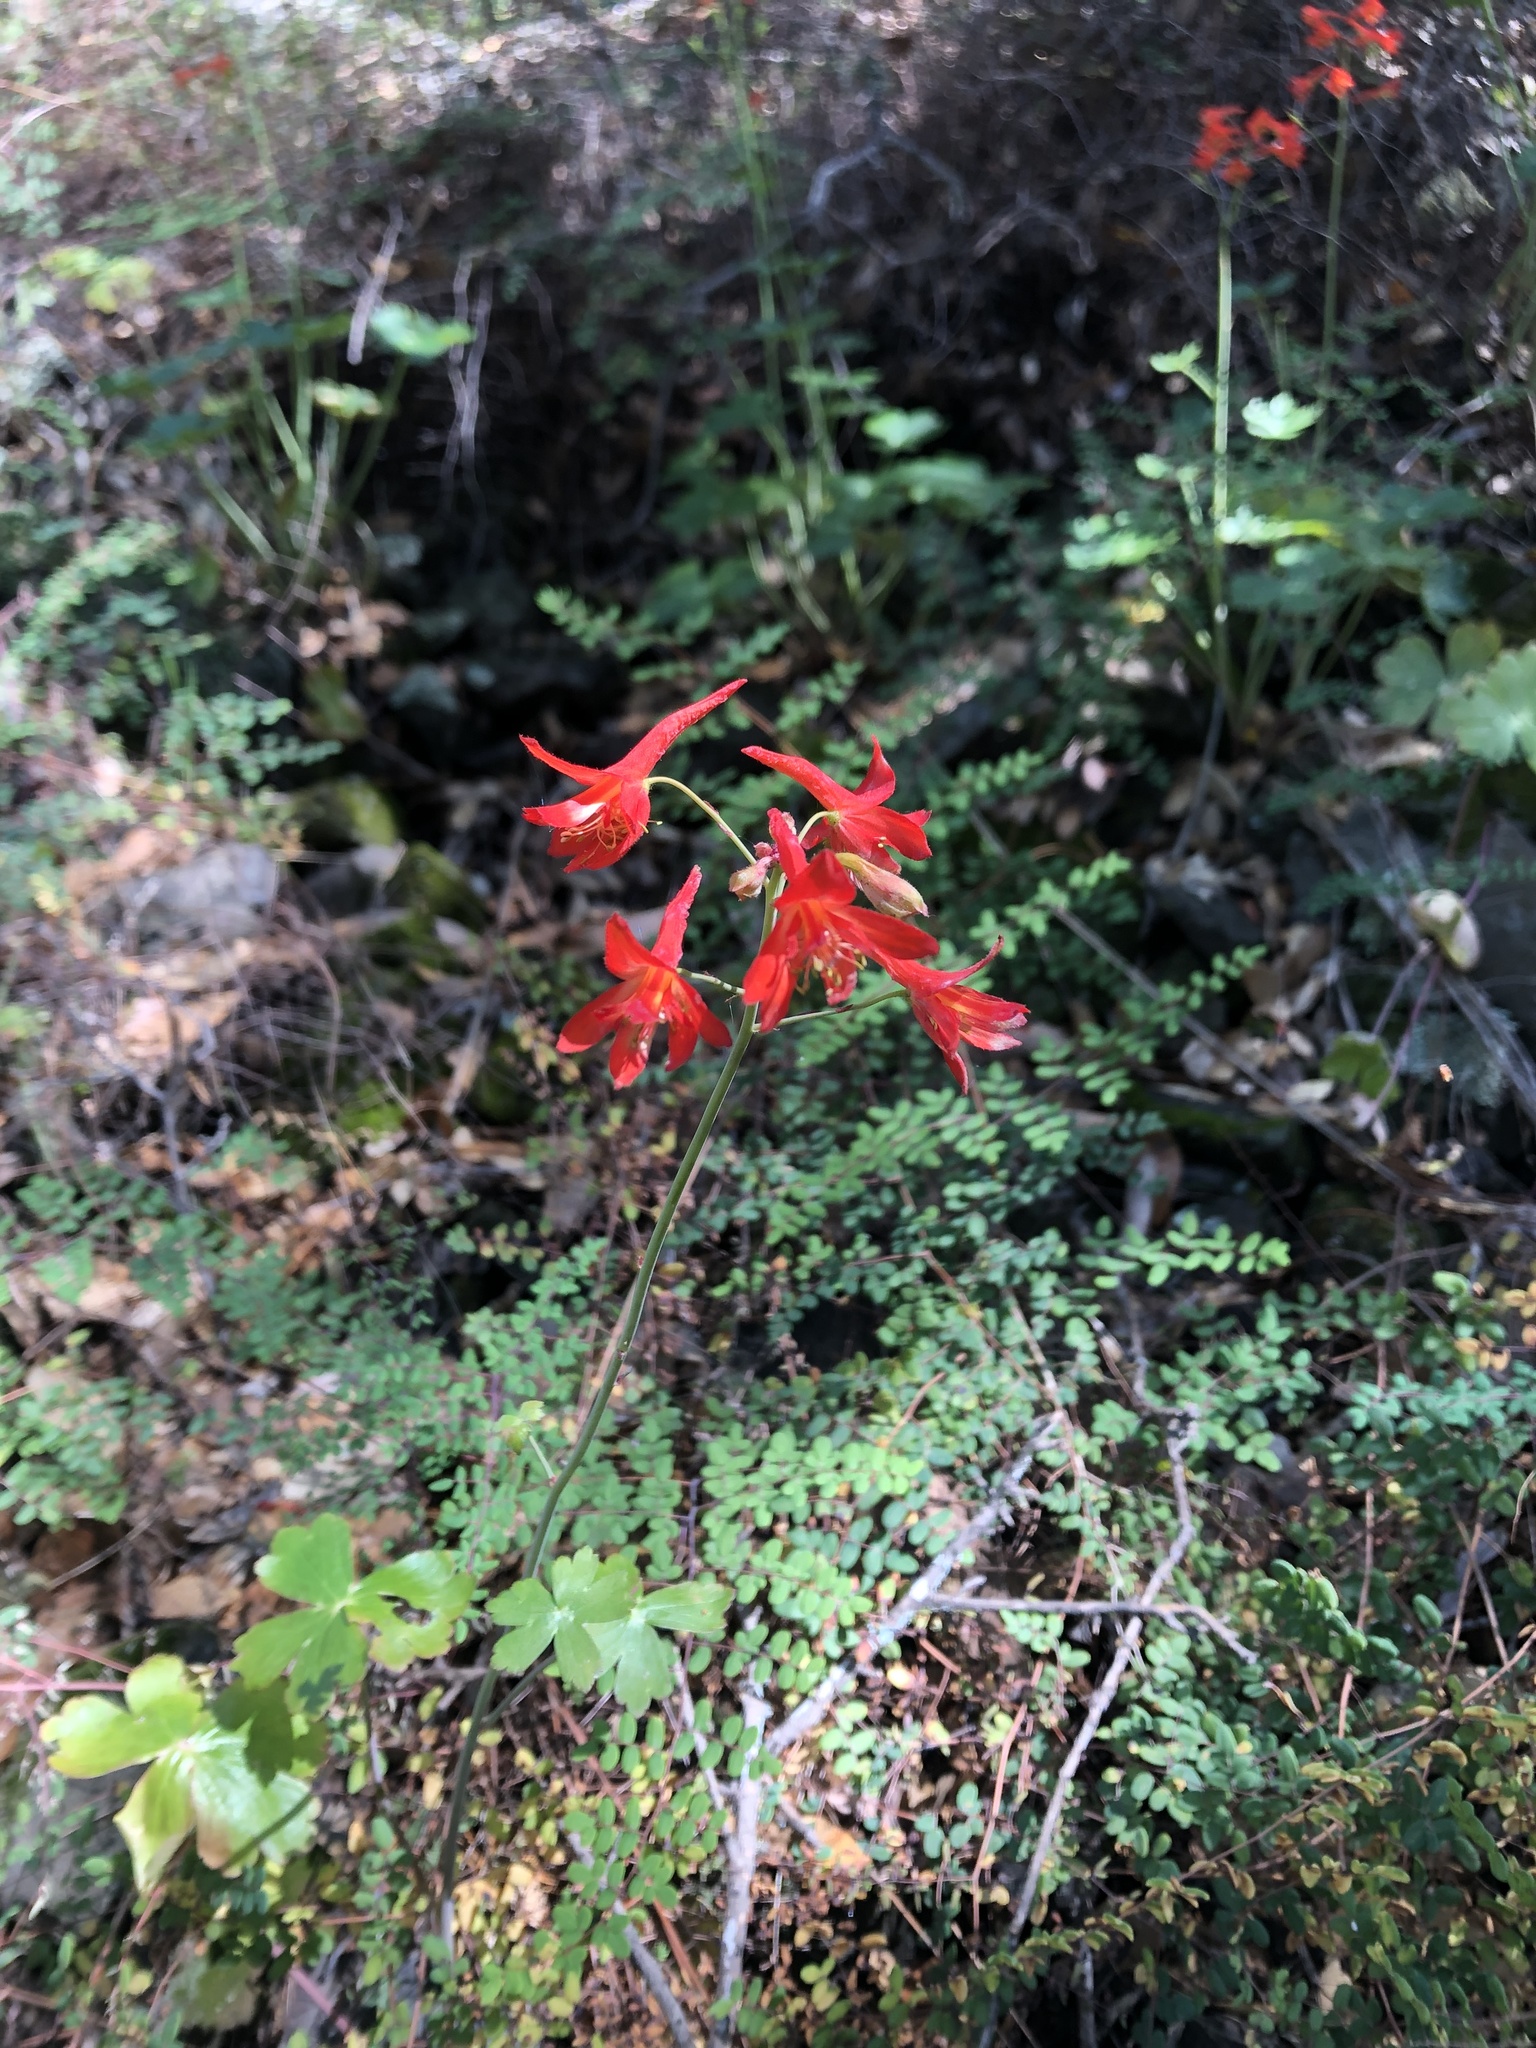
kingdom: Plantae
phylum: Tracheophyta
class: Magnoliopsida
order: Ranunculales
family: Ranunculaceae
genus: Delphinium
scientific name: Delphinium nudicaule
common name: Red larkspur
